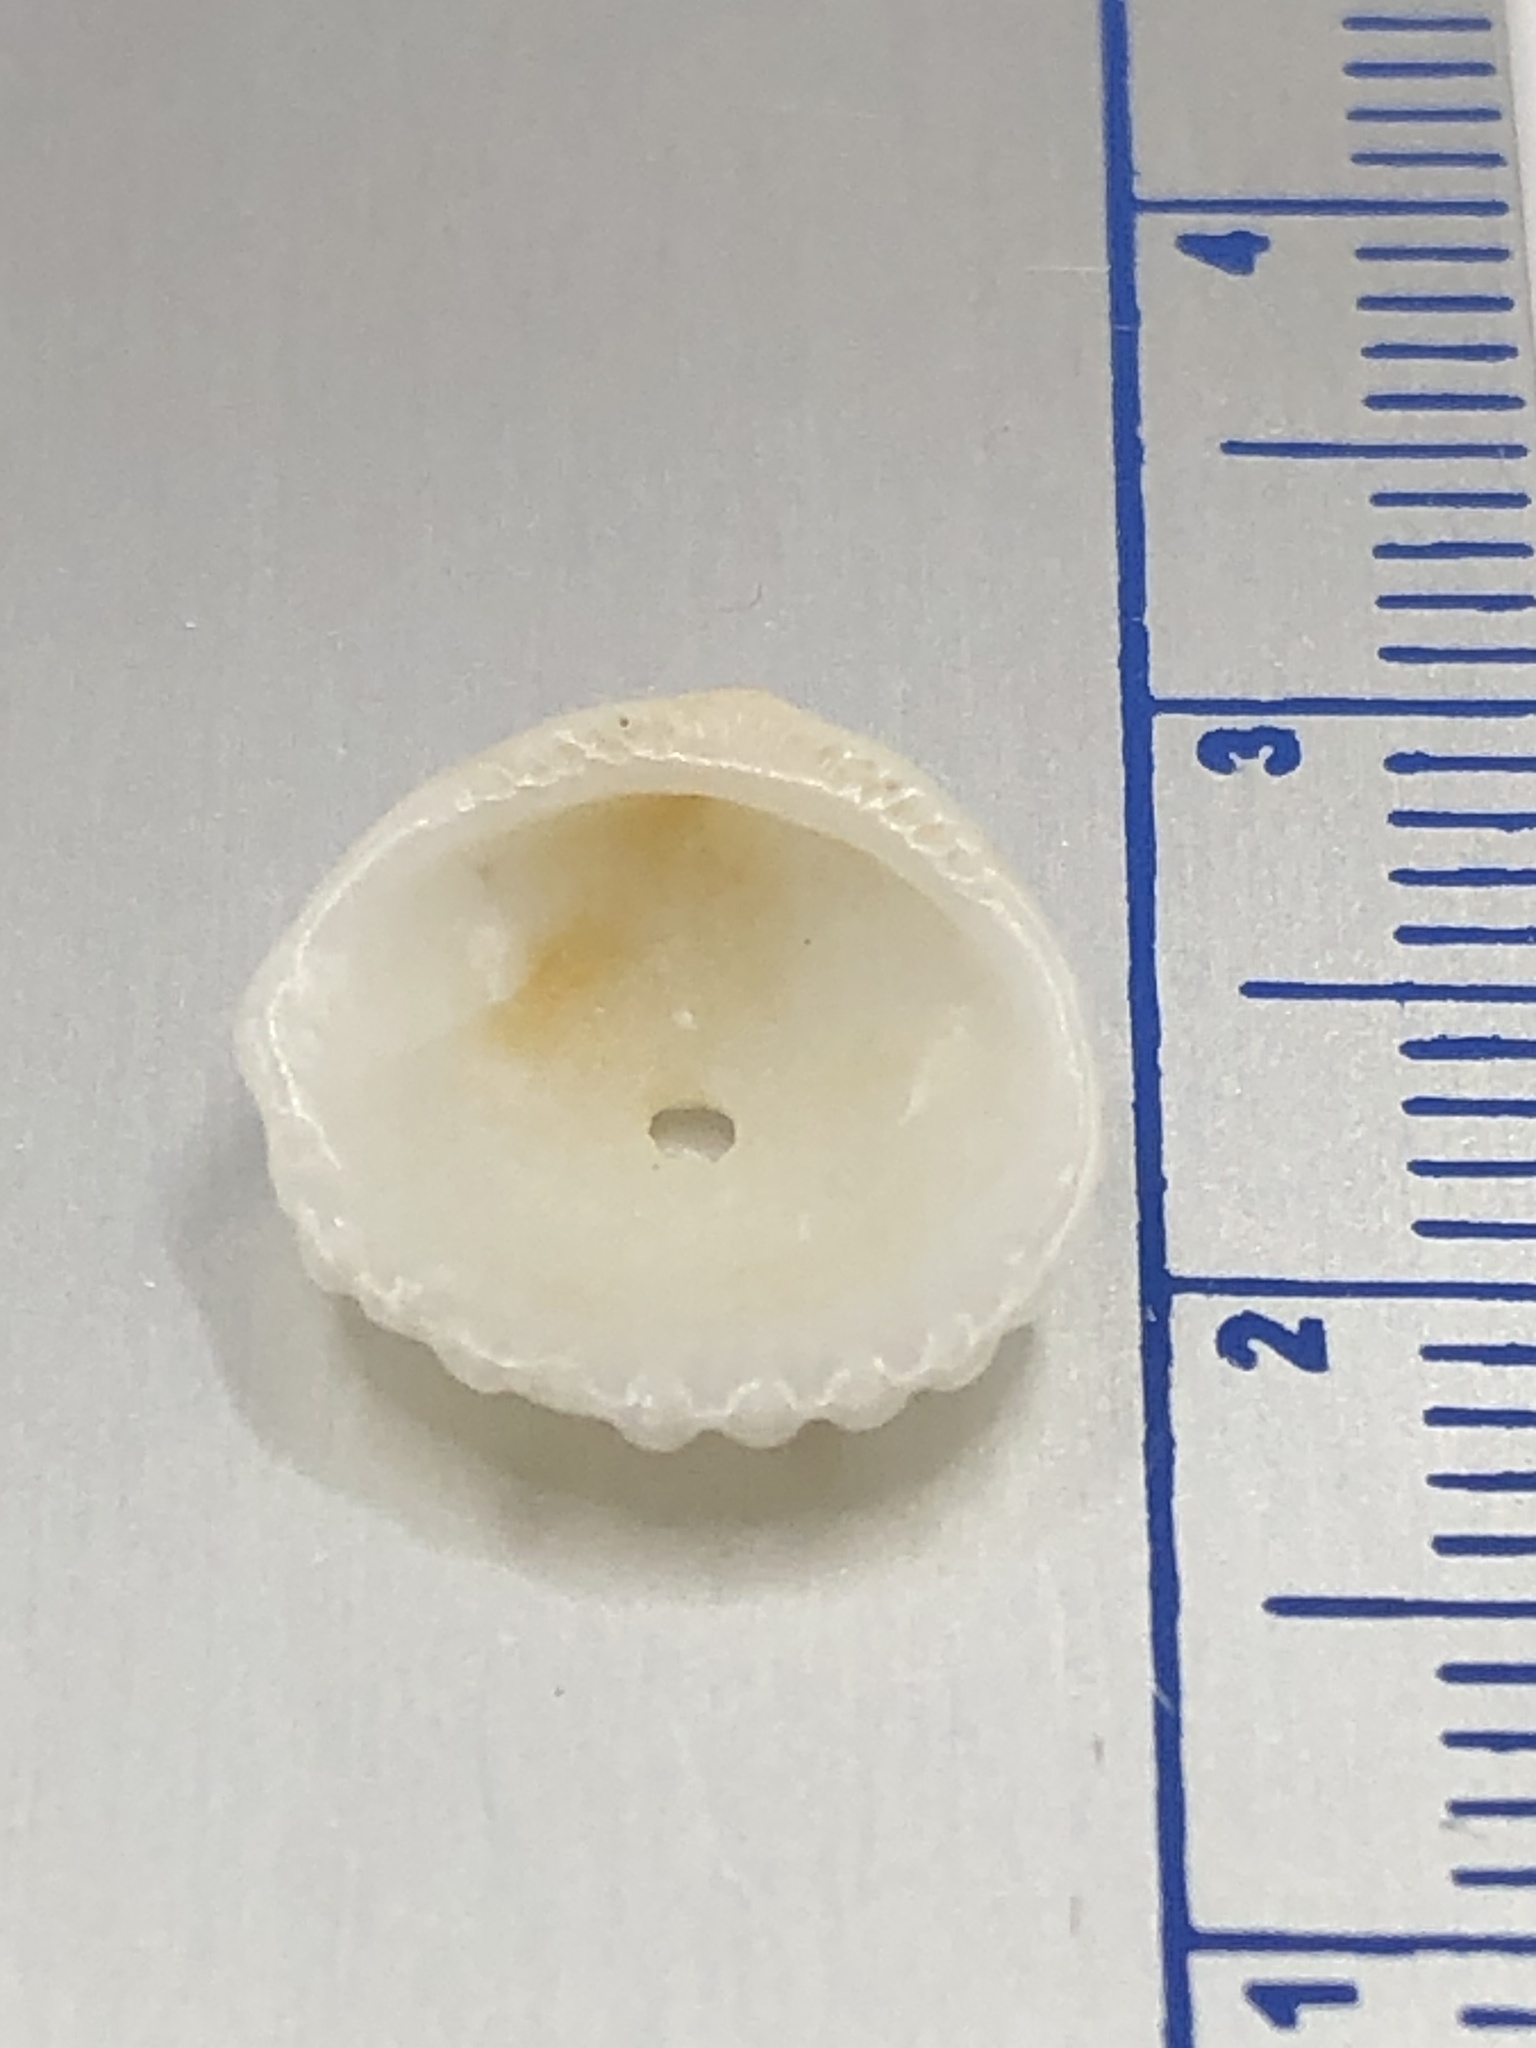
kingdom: Animalia
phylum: Mollusca
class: Bivalvia
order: Arcida
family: Glycymerididae
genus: Tucetona
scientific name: Tucetona pectinata
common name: Comb bittersweet
